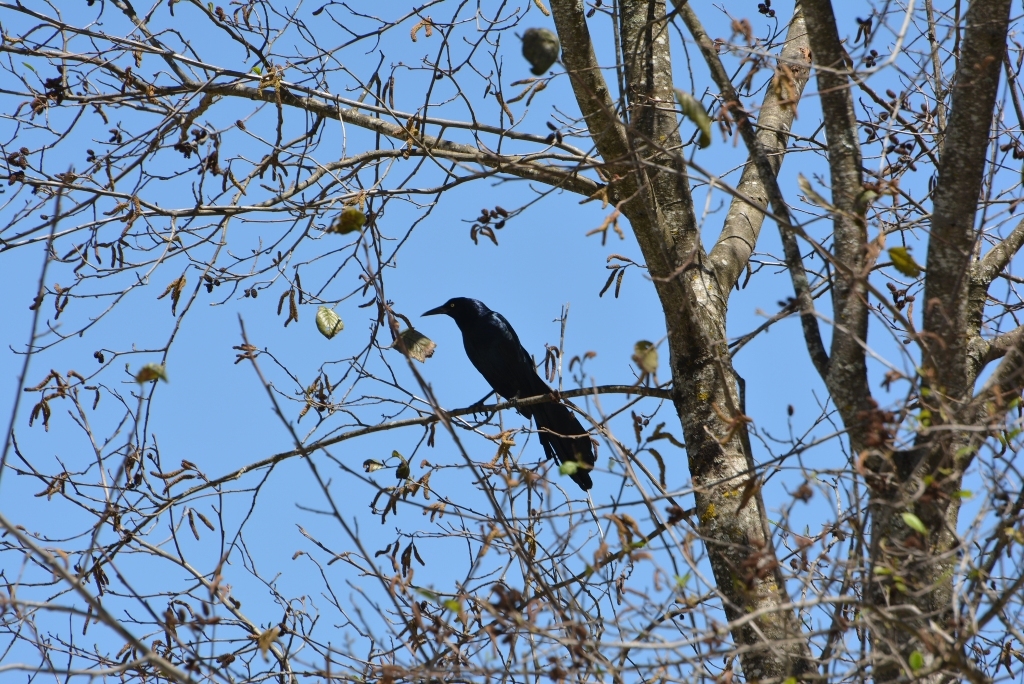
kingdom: Animalia
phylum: Chordata
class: Aves
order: Passeriformes
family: Icteridae
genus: Quiscalus
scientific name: Quiscalus mexicanus
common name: Great-tailed grackle
